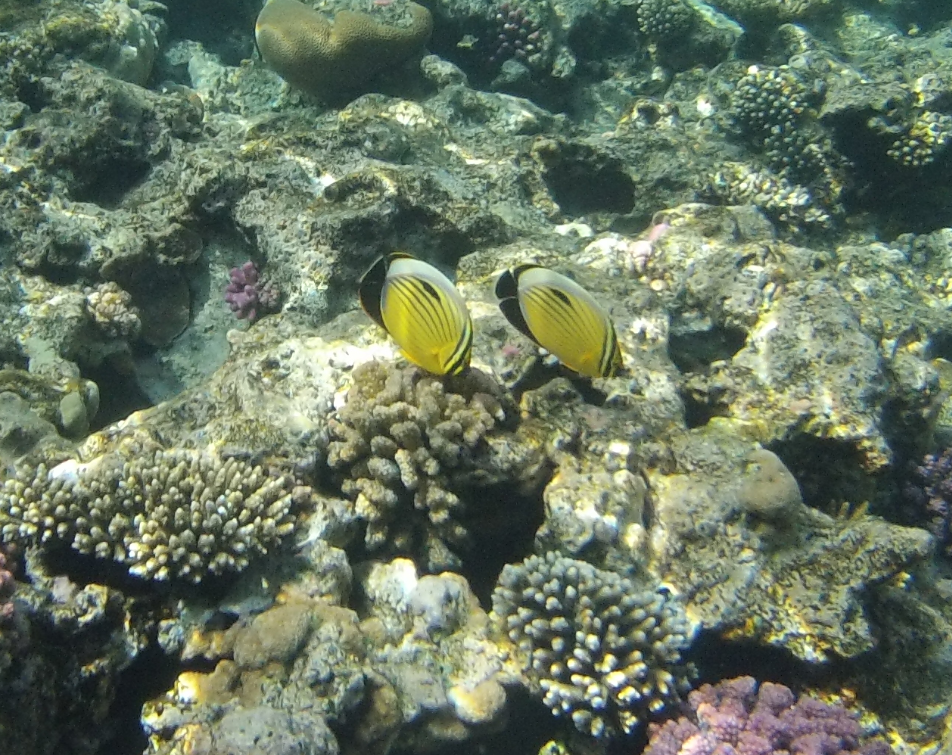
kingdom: Animalia
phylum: Chordata
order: Perciformes
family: Chaetodontidae
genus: Chaetodon
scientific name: Chaetodon austriacus
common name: Exquisite butterflyfish
